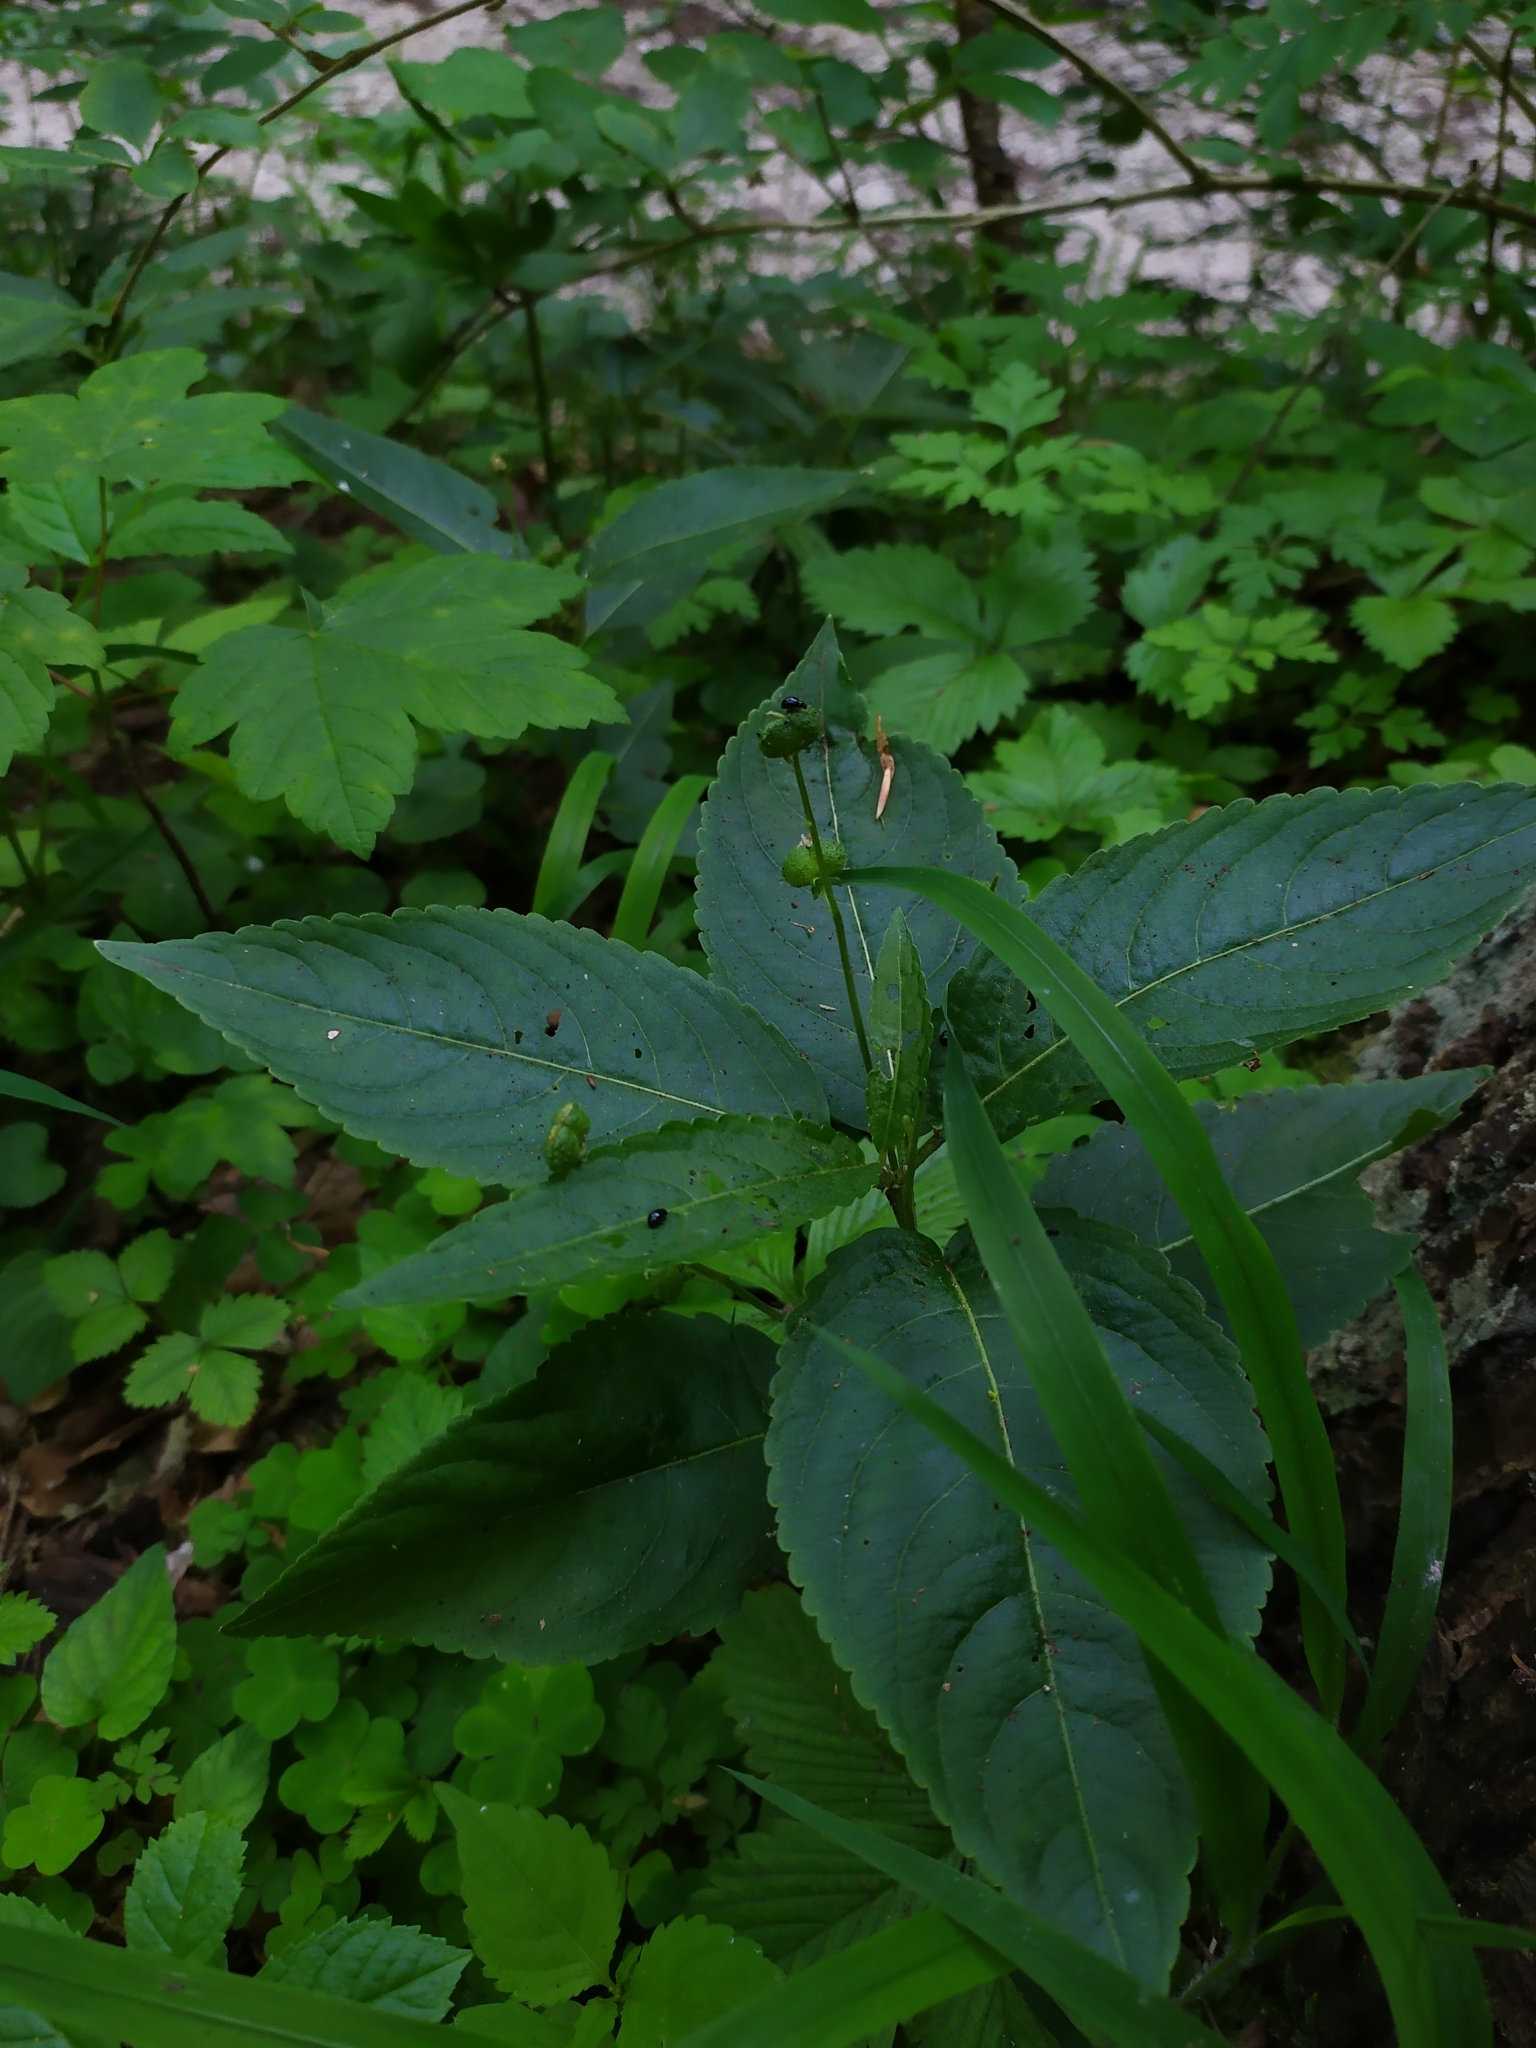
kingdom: Plantae
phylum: Tracheophyta
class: Magnoliopsida
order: Malpighiales
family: Euphorbiaceae
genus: Mercurialis
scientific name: Mercurialis perennis
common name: Dog mercury
